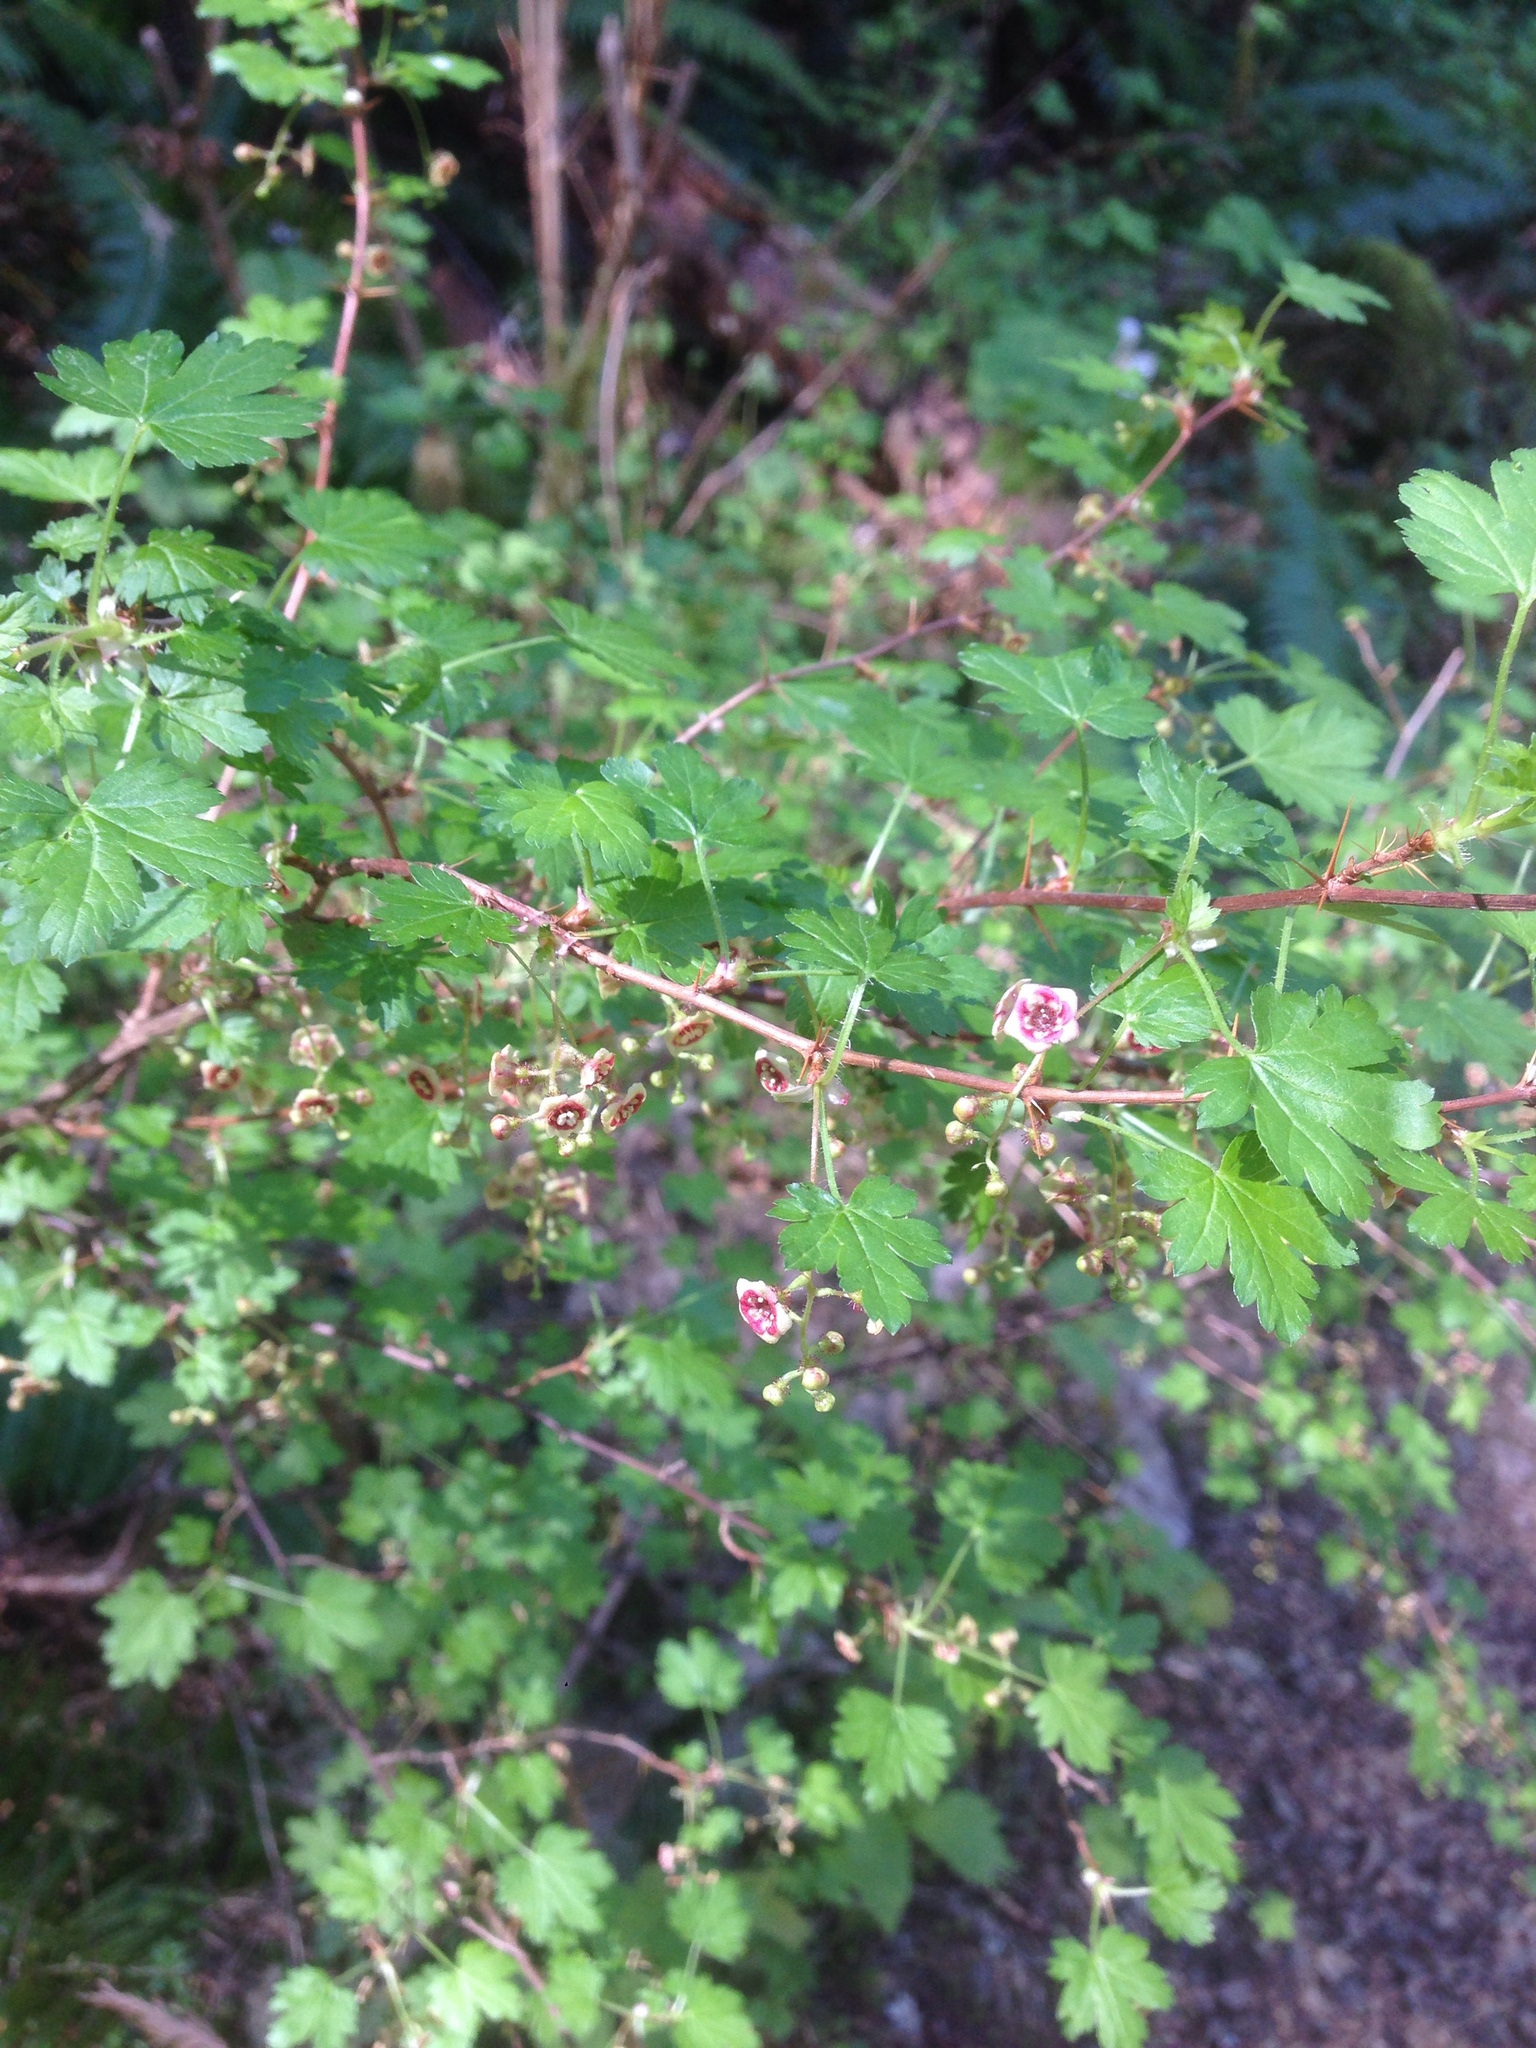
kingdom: Plantae
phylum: Tracheophyta
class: Magnoliopsida
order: Saxifragales
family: Grossulariaceae
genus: Ribes
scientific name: Ribes lacustre
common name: Black gooseberry
